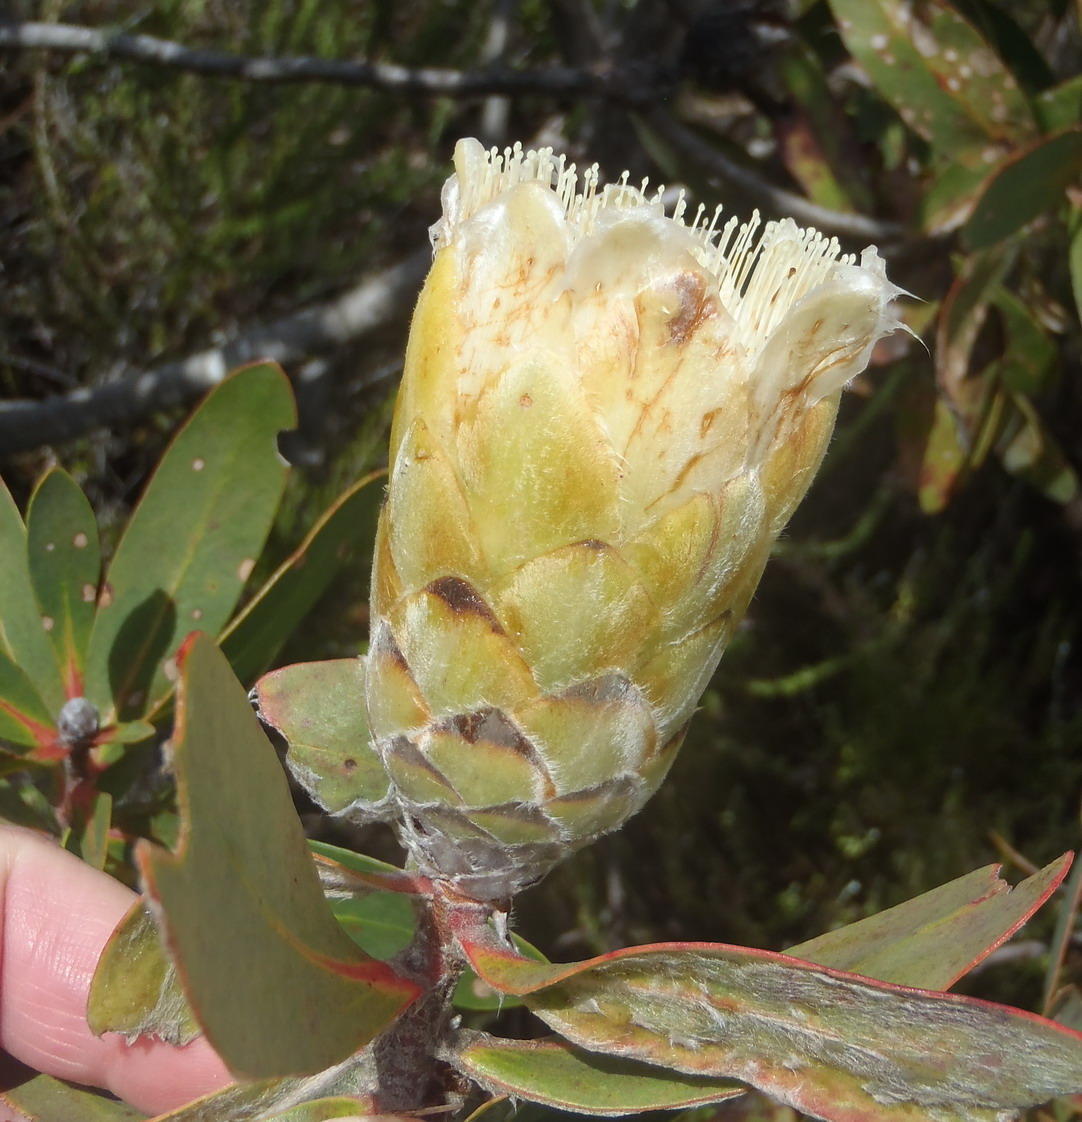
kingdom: Plantae
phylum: Tracheophyta
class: Magnoliopsida
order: Proteales
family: Proteaceae
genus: Protea
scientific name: Protea mundii
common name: Forest sugarbush
